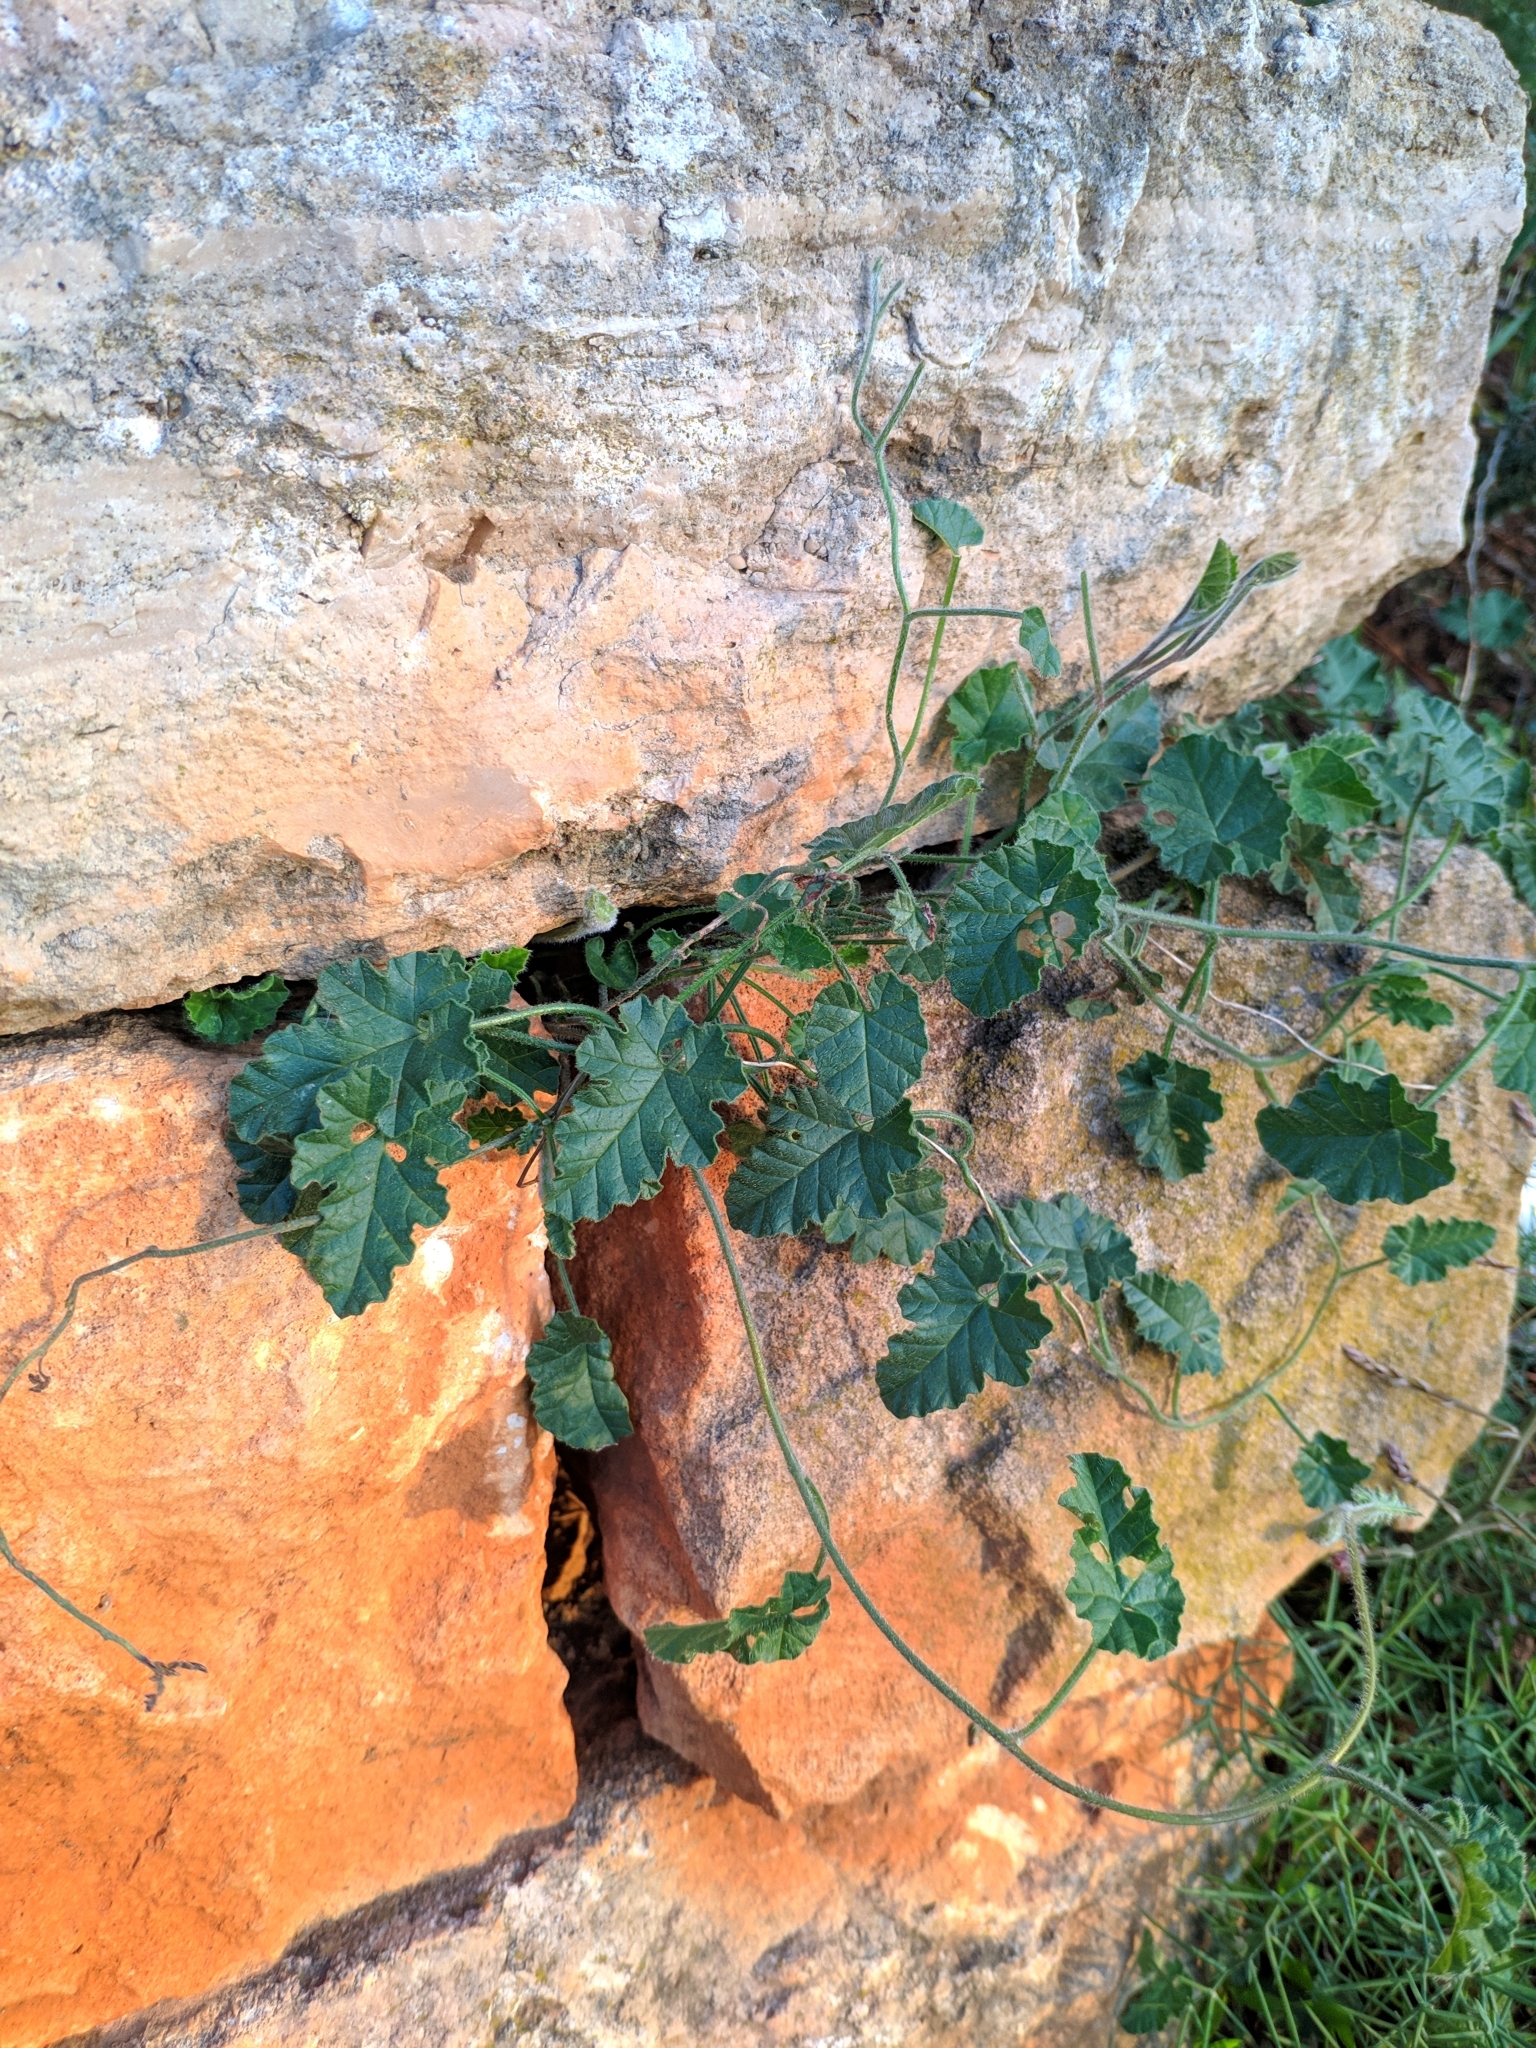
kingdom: Plantae
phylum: Tracheophyta
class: Magnoliopsida
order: Solanales
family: Convolvulaceae
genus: Convolvulus
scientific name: Convolvulus althaeoides
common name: Mallow bindweed
